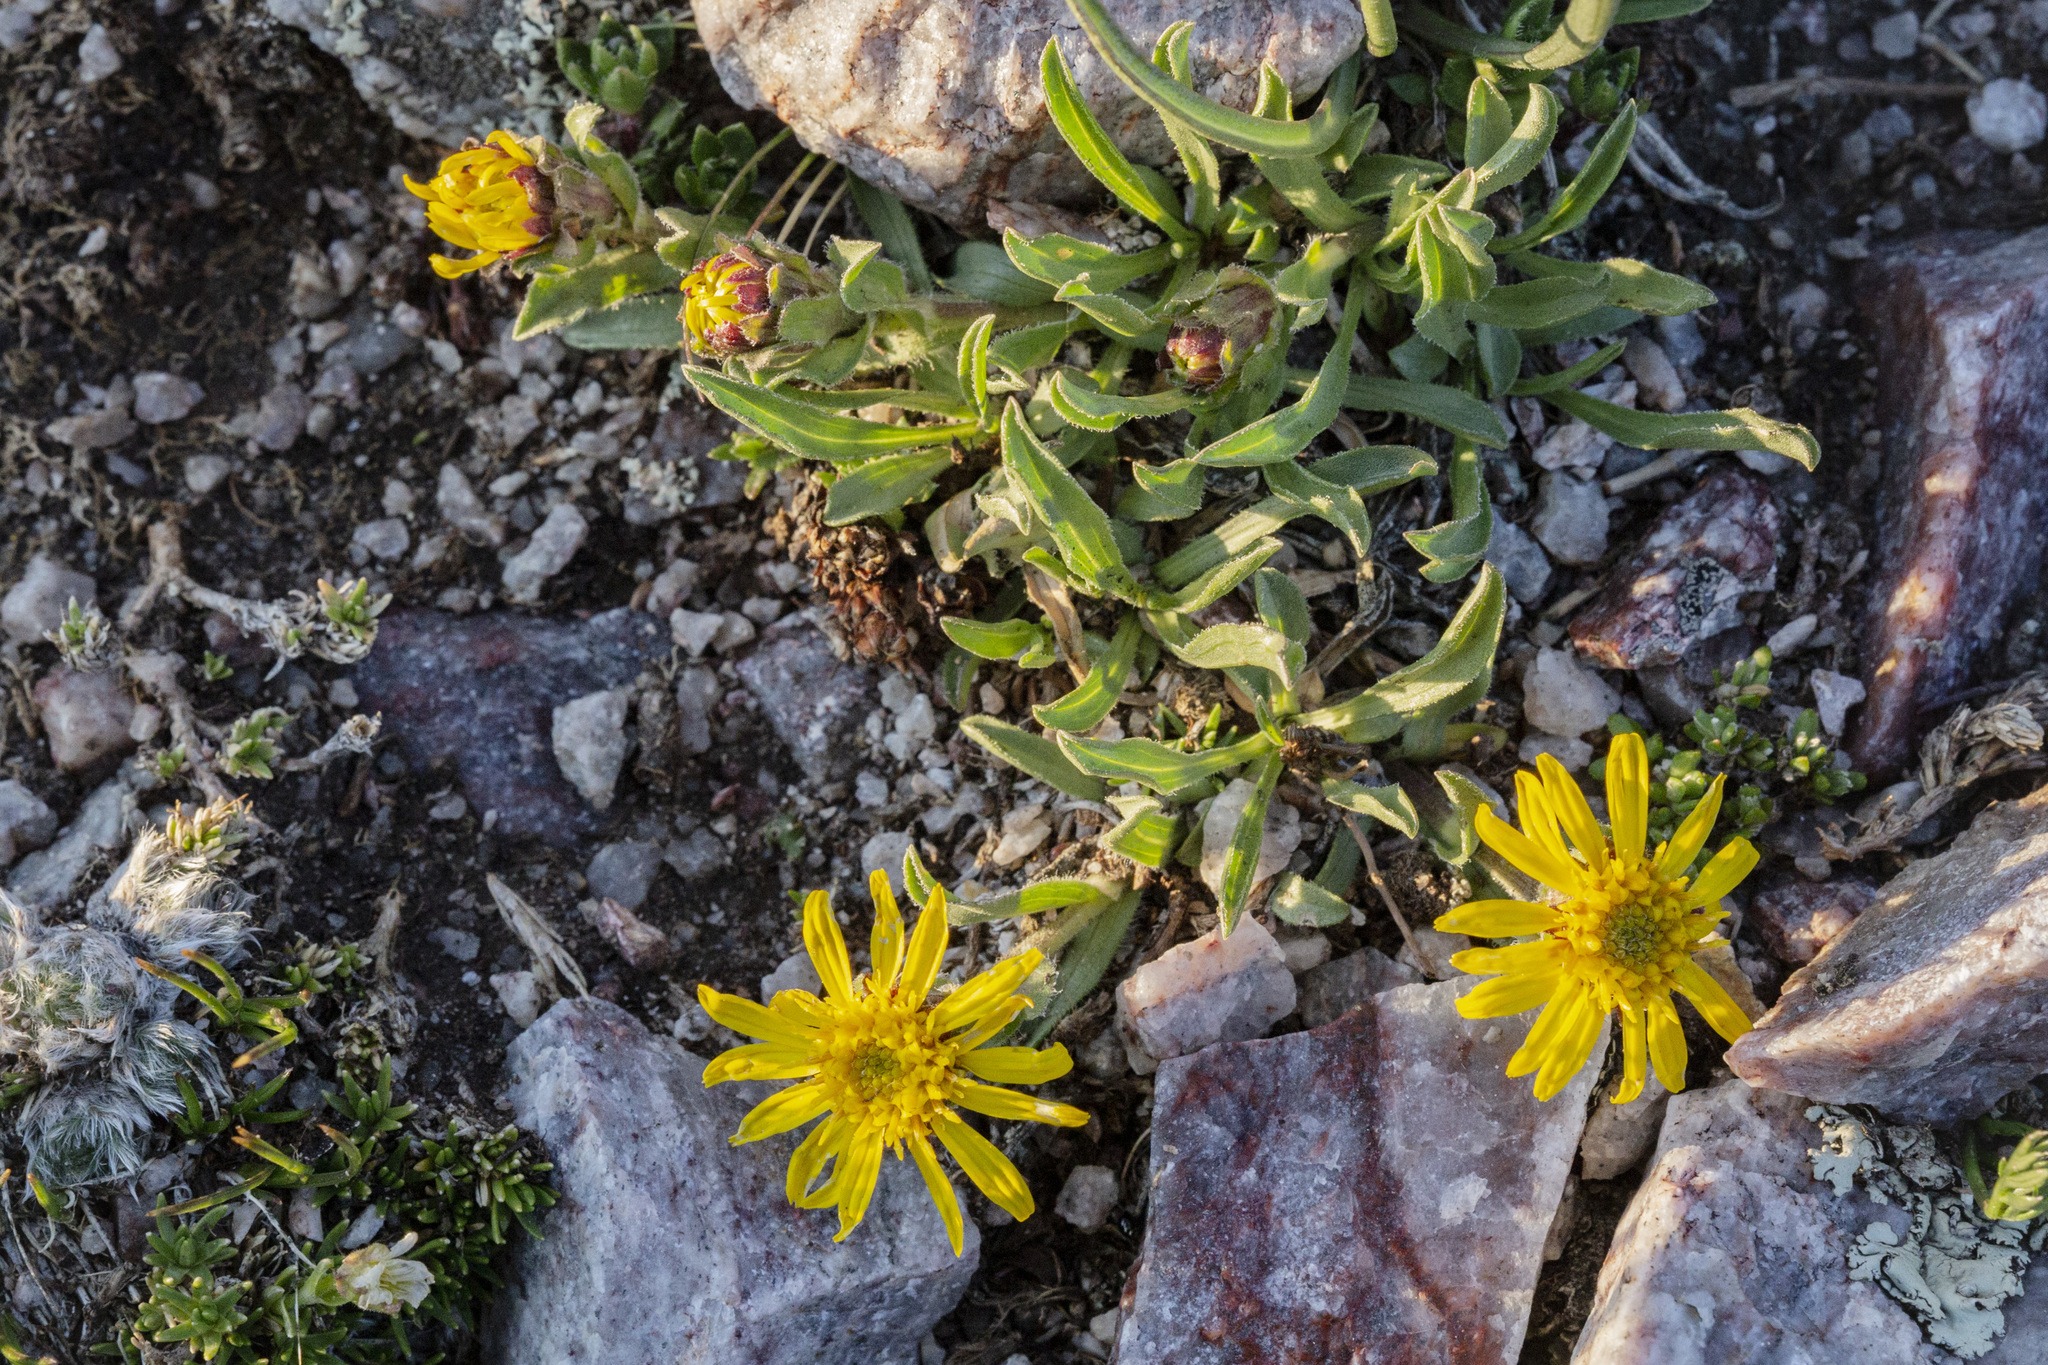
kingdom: Plantae
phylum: Tracheophyta
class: Magnoliopsida
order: Asterales
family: Asteraceae
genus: Tonestus
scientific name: Tonestus pygmaeus
